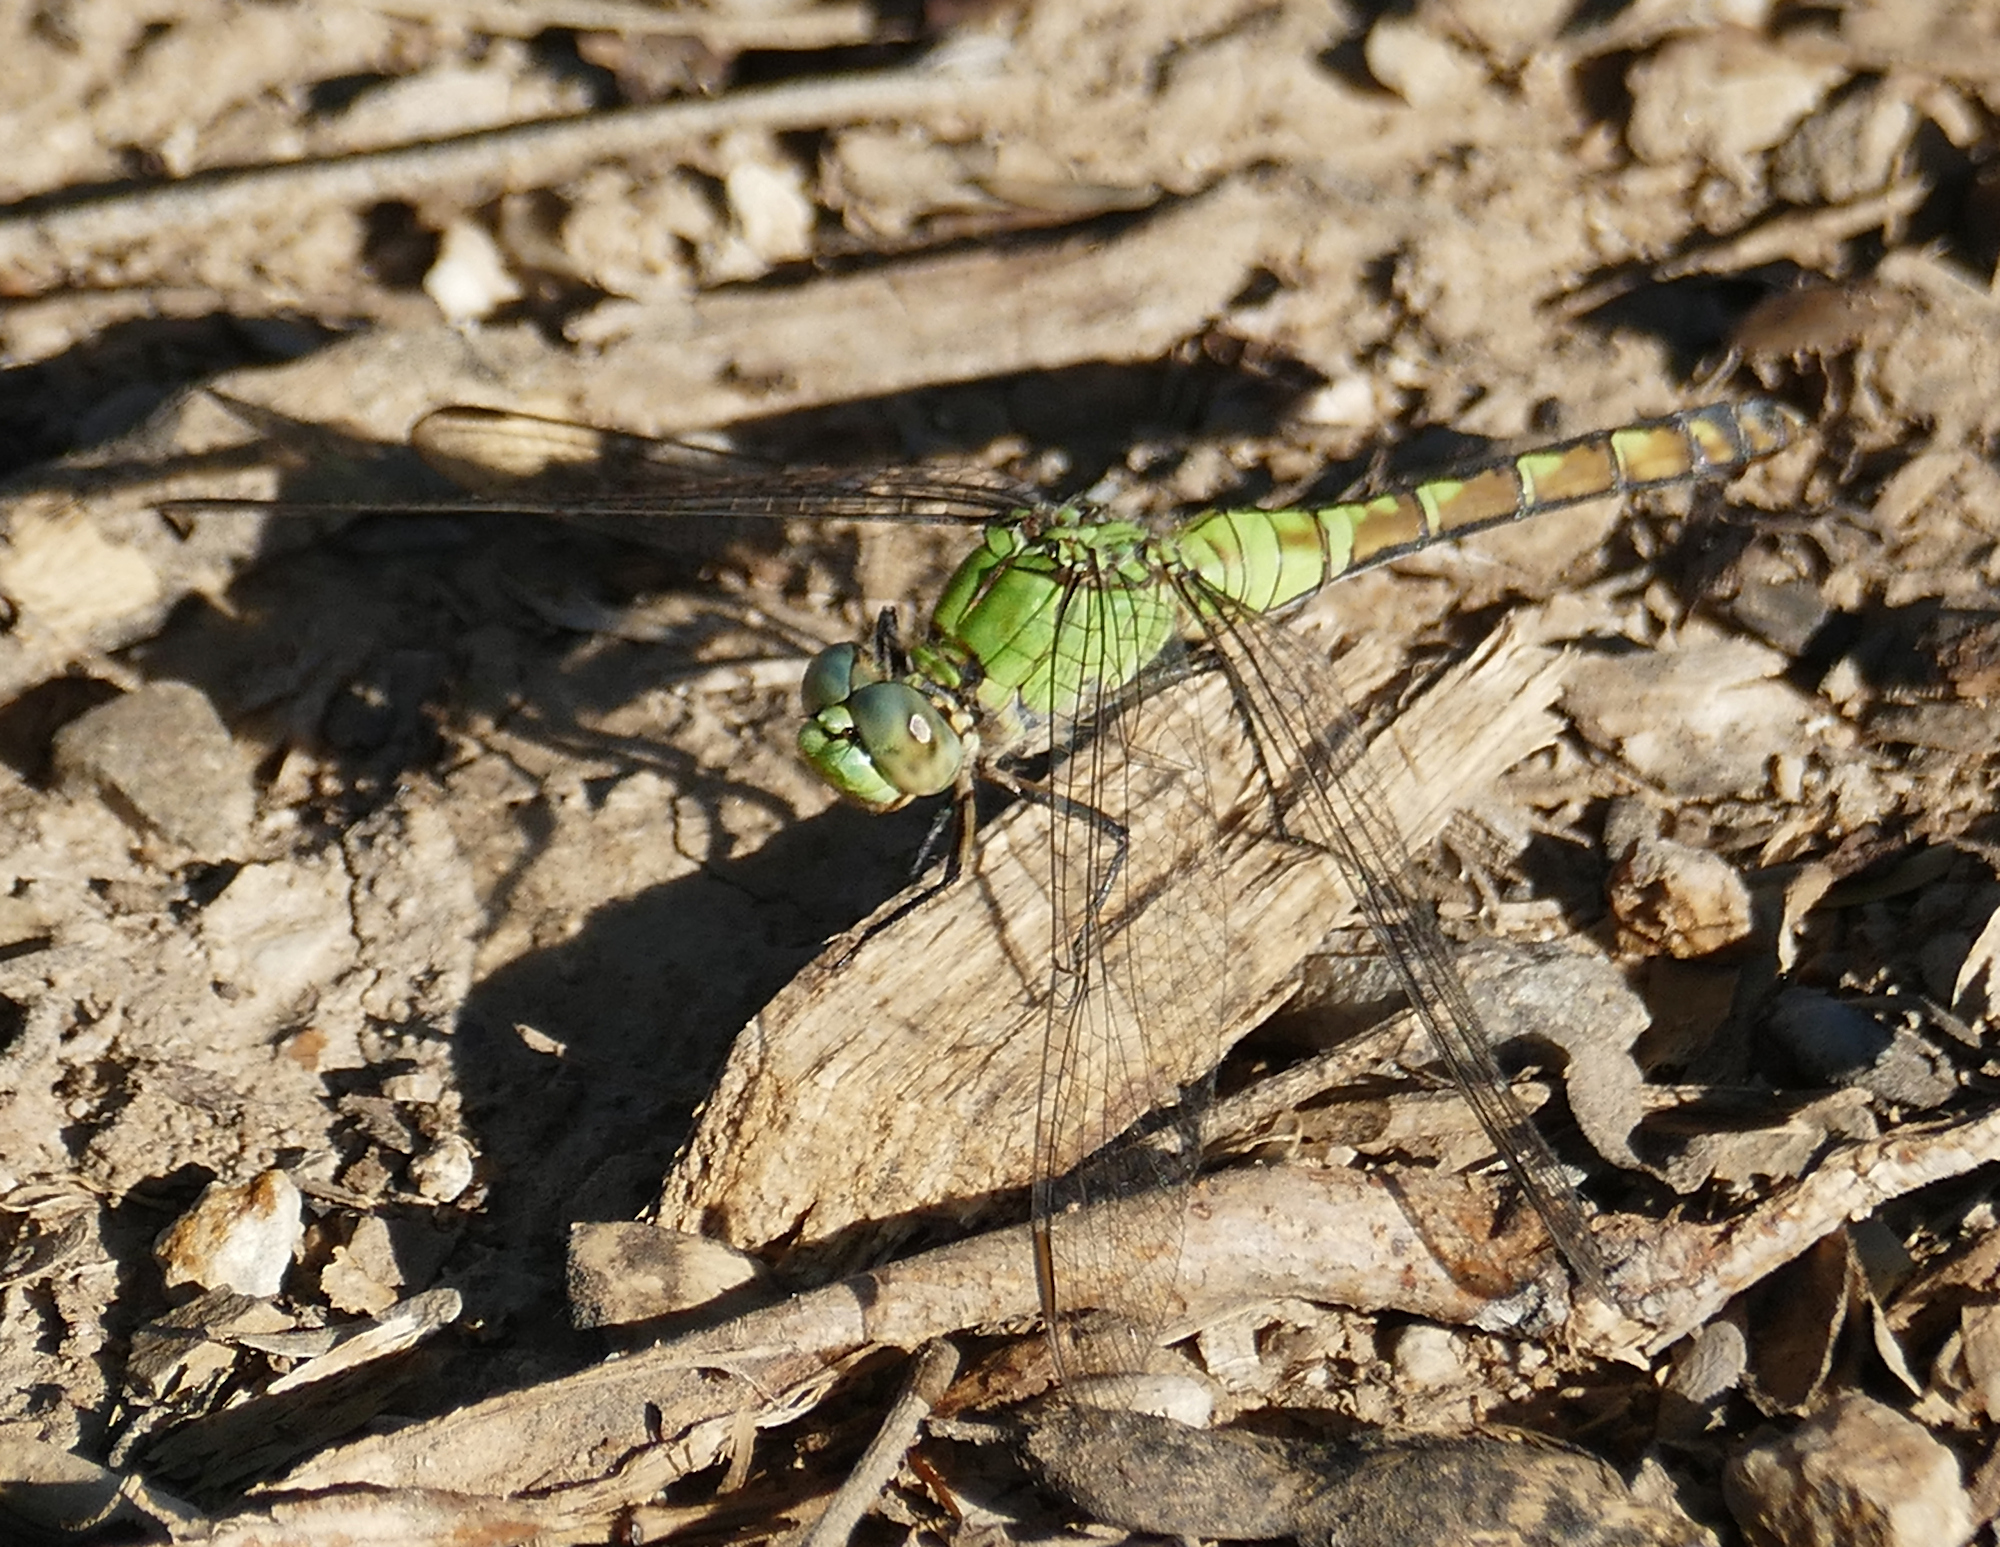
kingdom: Animalia
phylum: Arthropoda
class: Insecta
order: Odonata
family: Libellulidae
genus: Erythemis
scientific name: Erythemis collocata
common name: Western pondhawk
